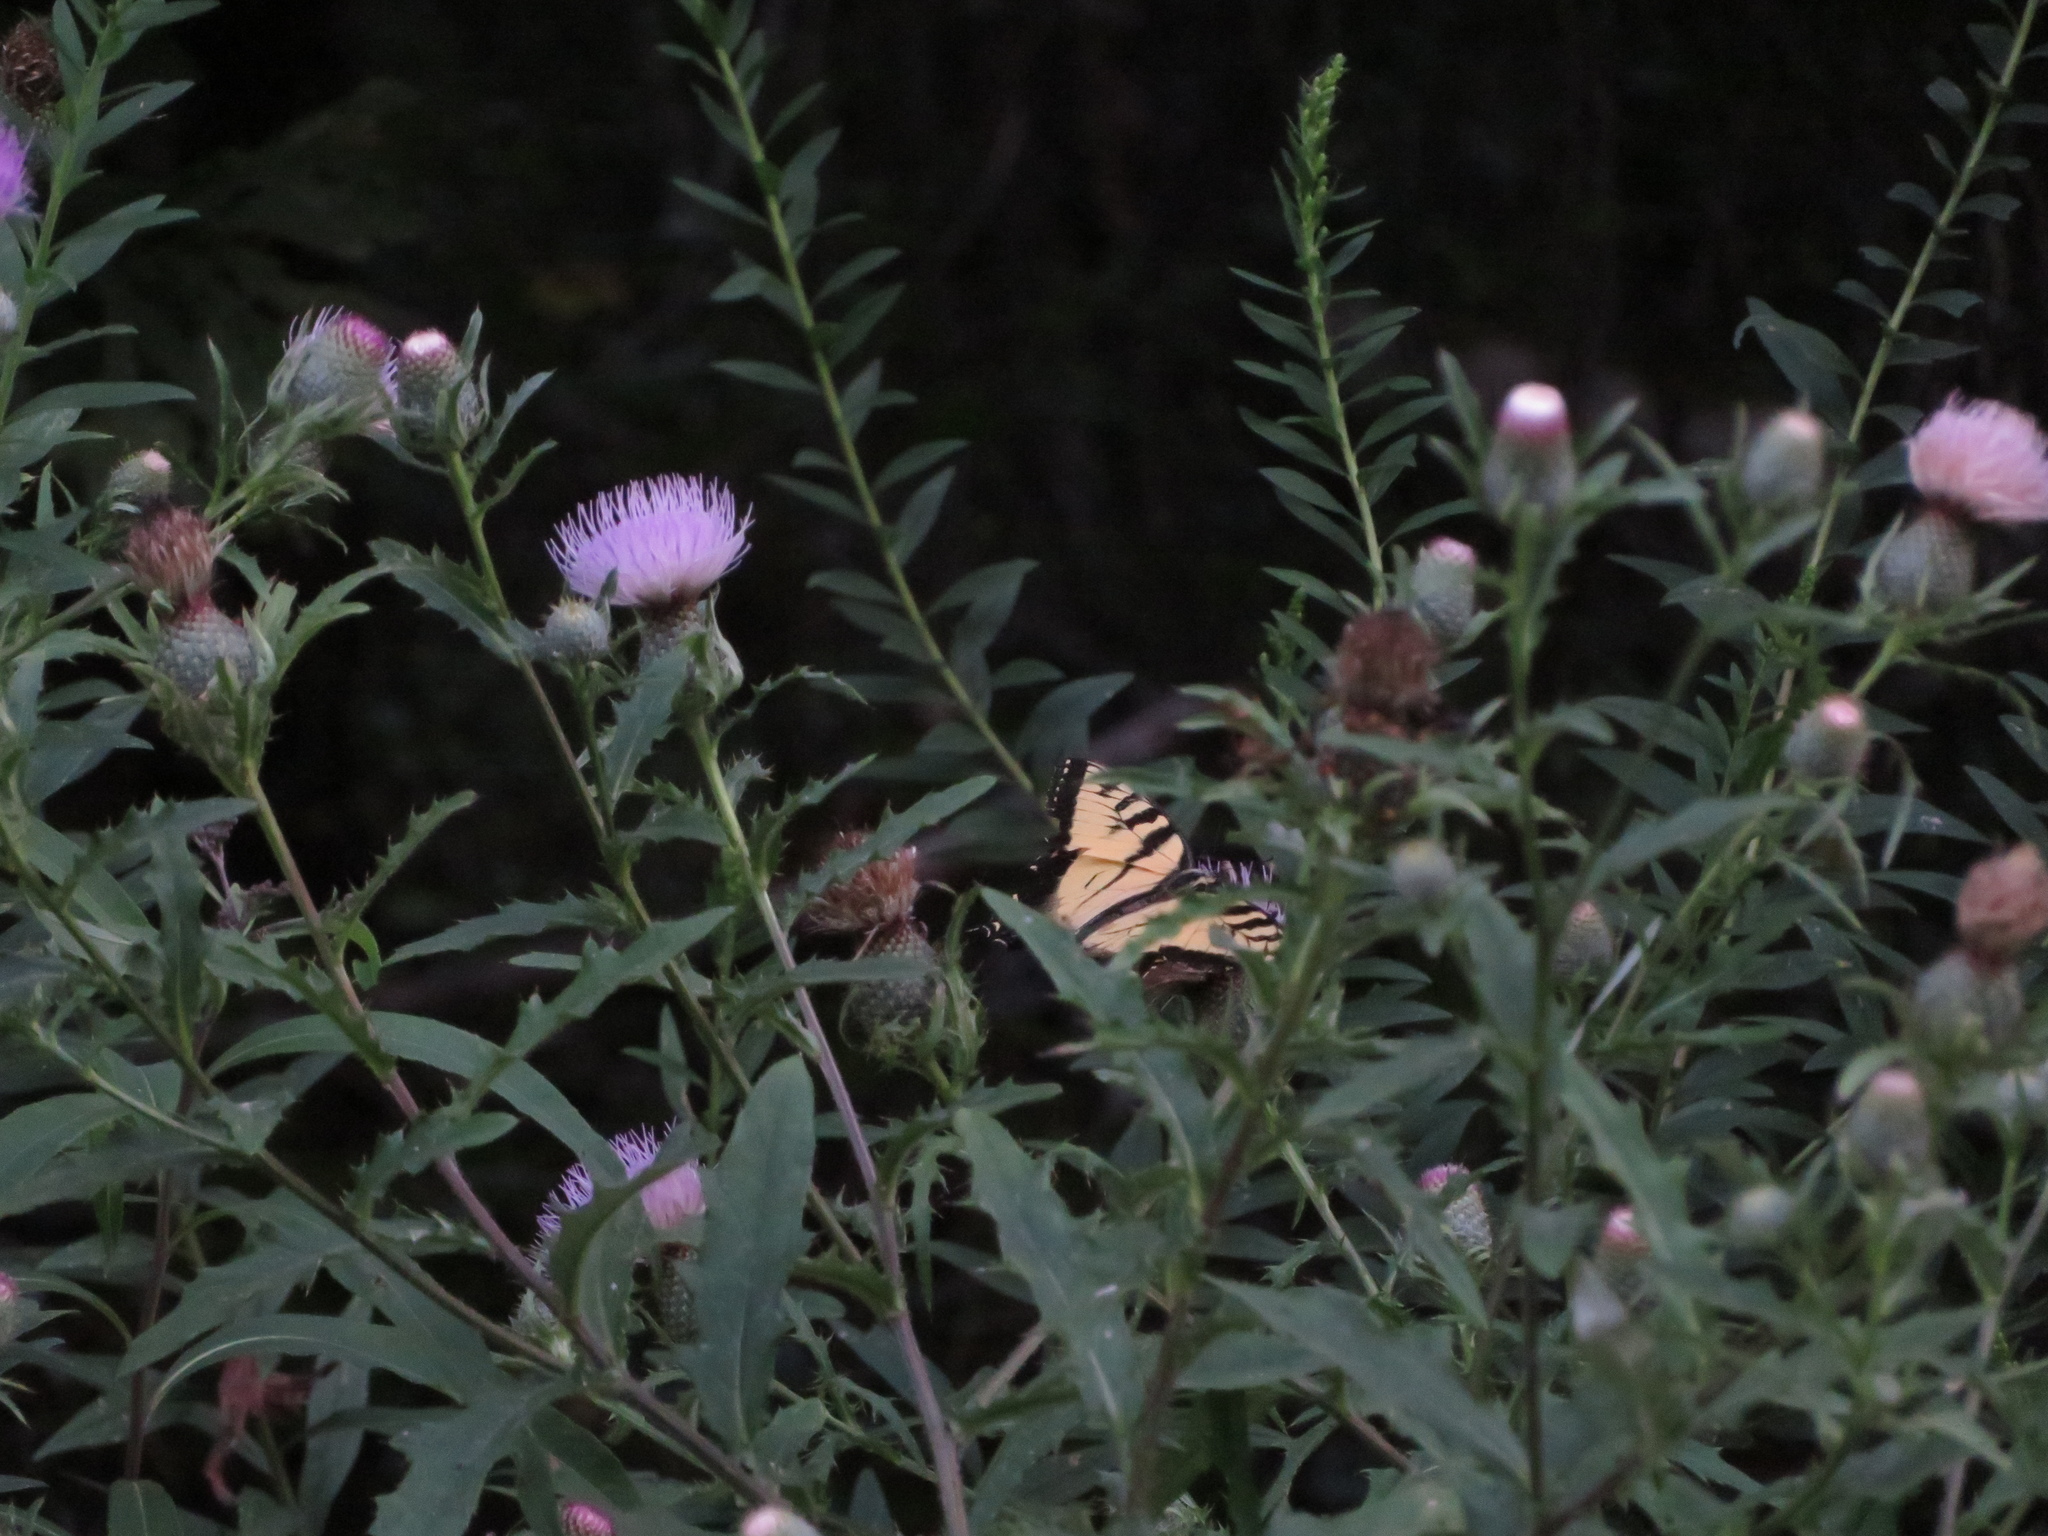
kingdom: Animalia
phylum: Arthropoda
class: Insecta
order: Lepidoptera
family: Papilionidae
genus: Papilio
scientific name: Papilio glaucus
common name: Tiger swallowtail
